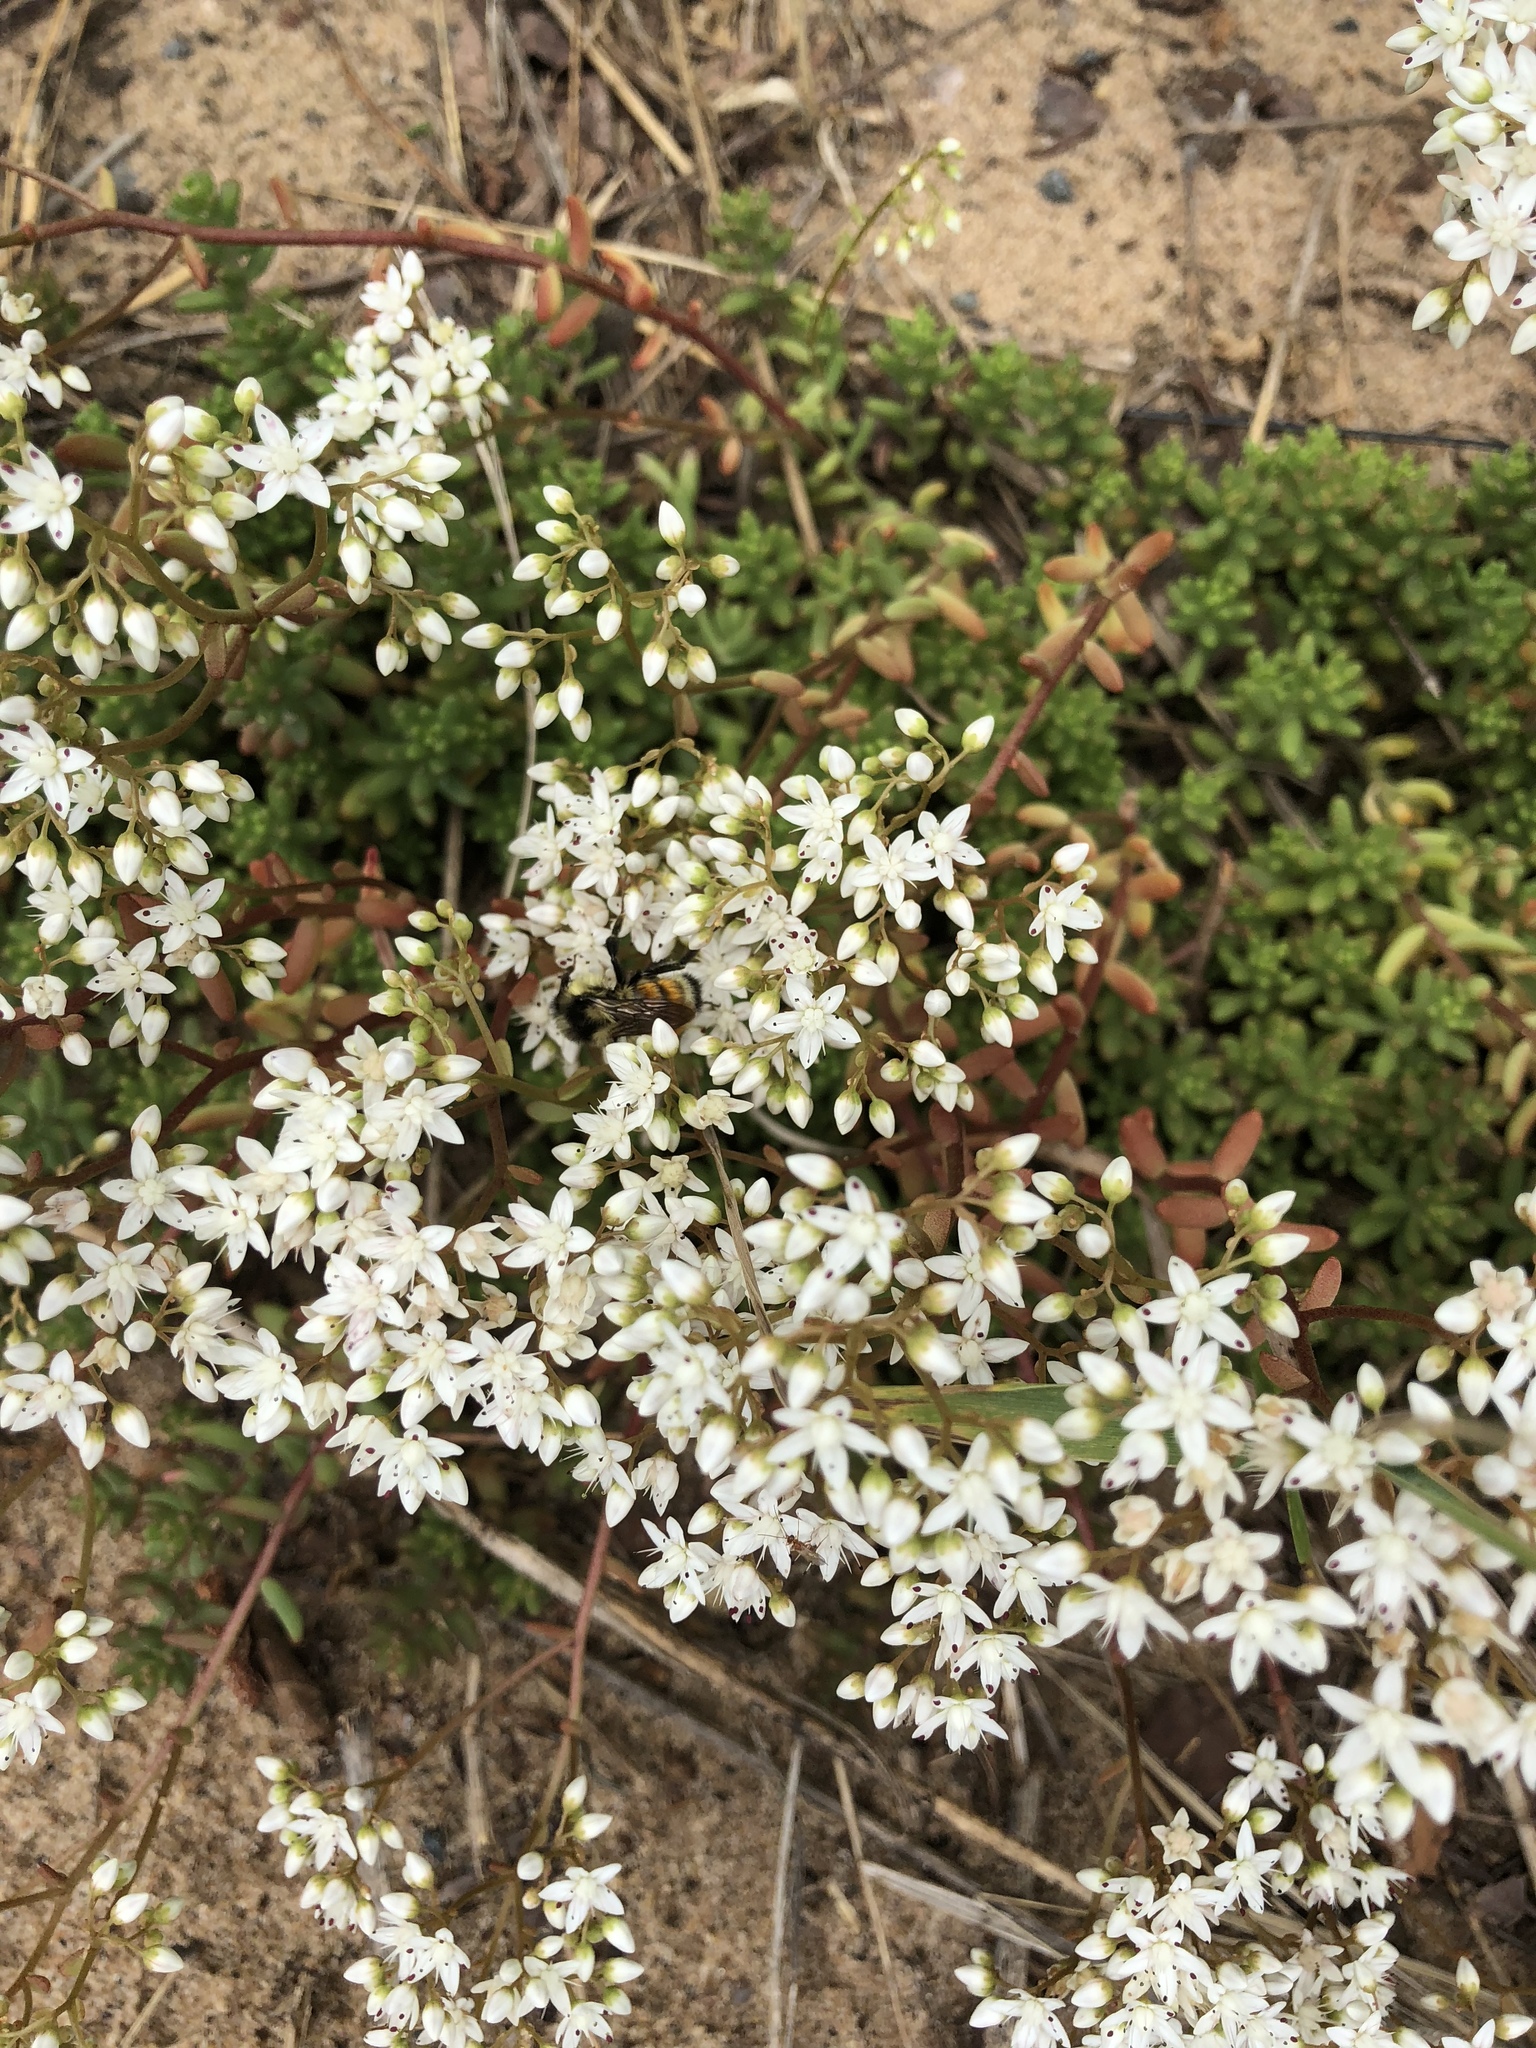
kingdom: Plantae
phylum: Tracheophyta
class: Magnoliopsida
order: Saxifragales
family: Crassulaceae
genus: Sedum
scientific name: Sedum album
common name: White stonecrop
